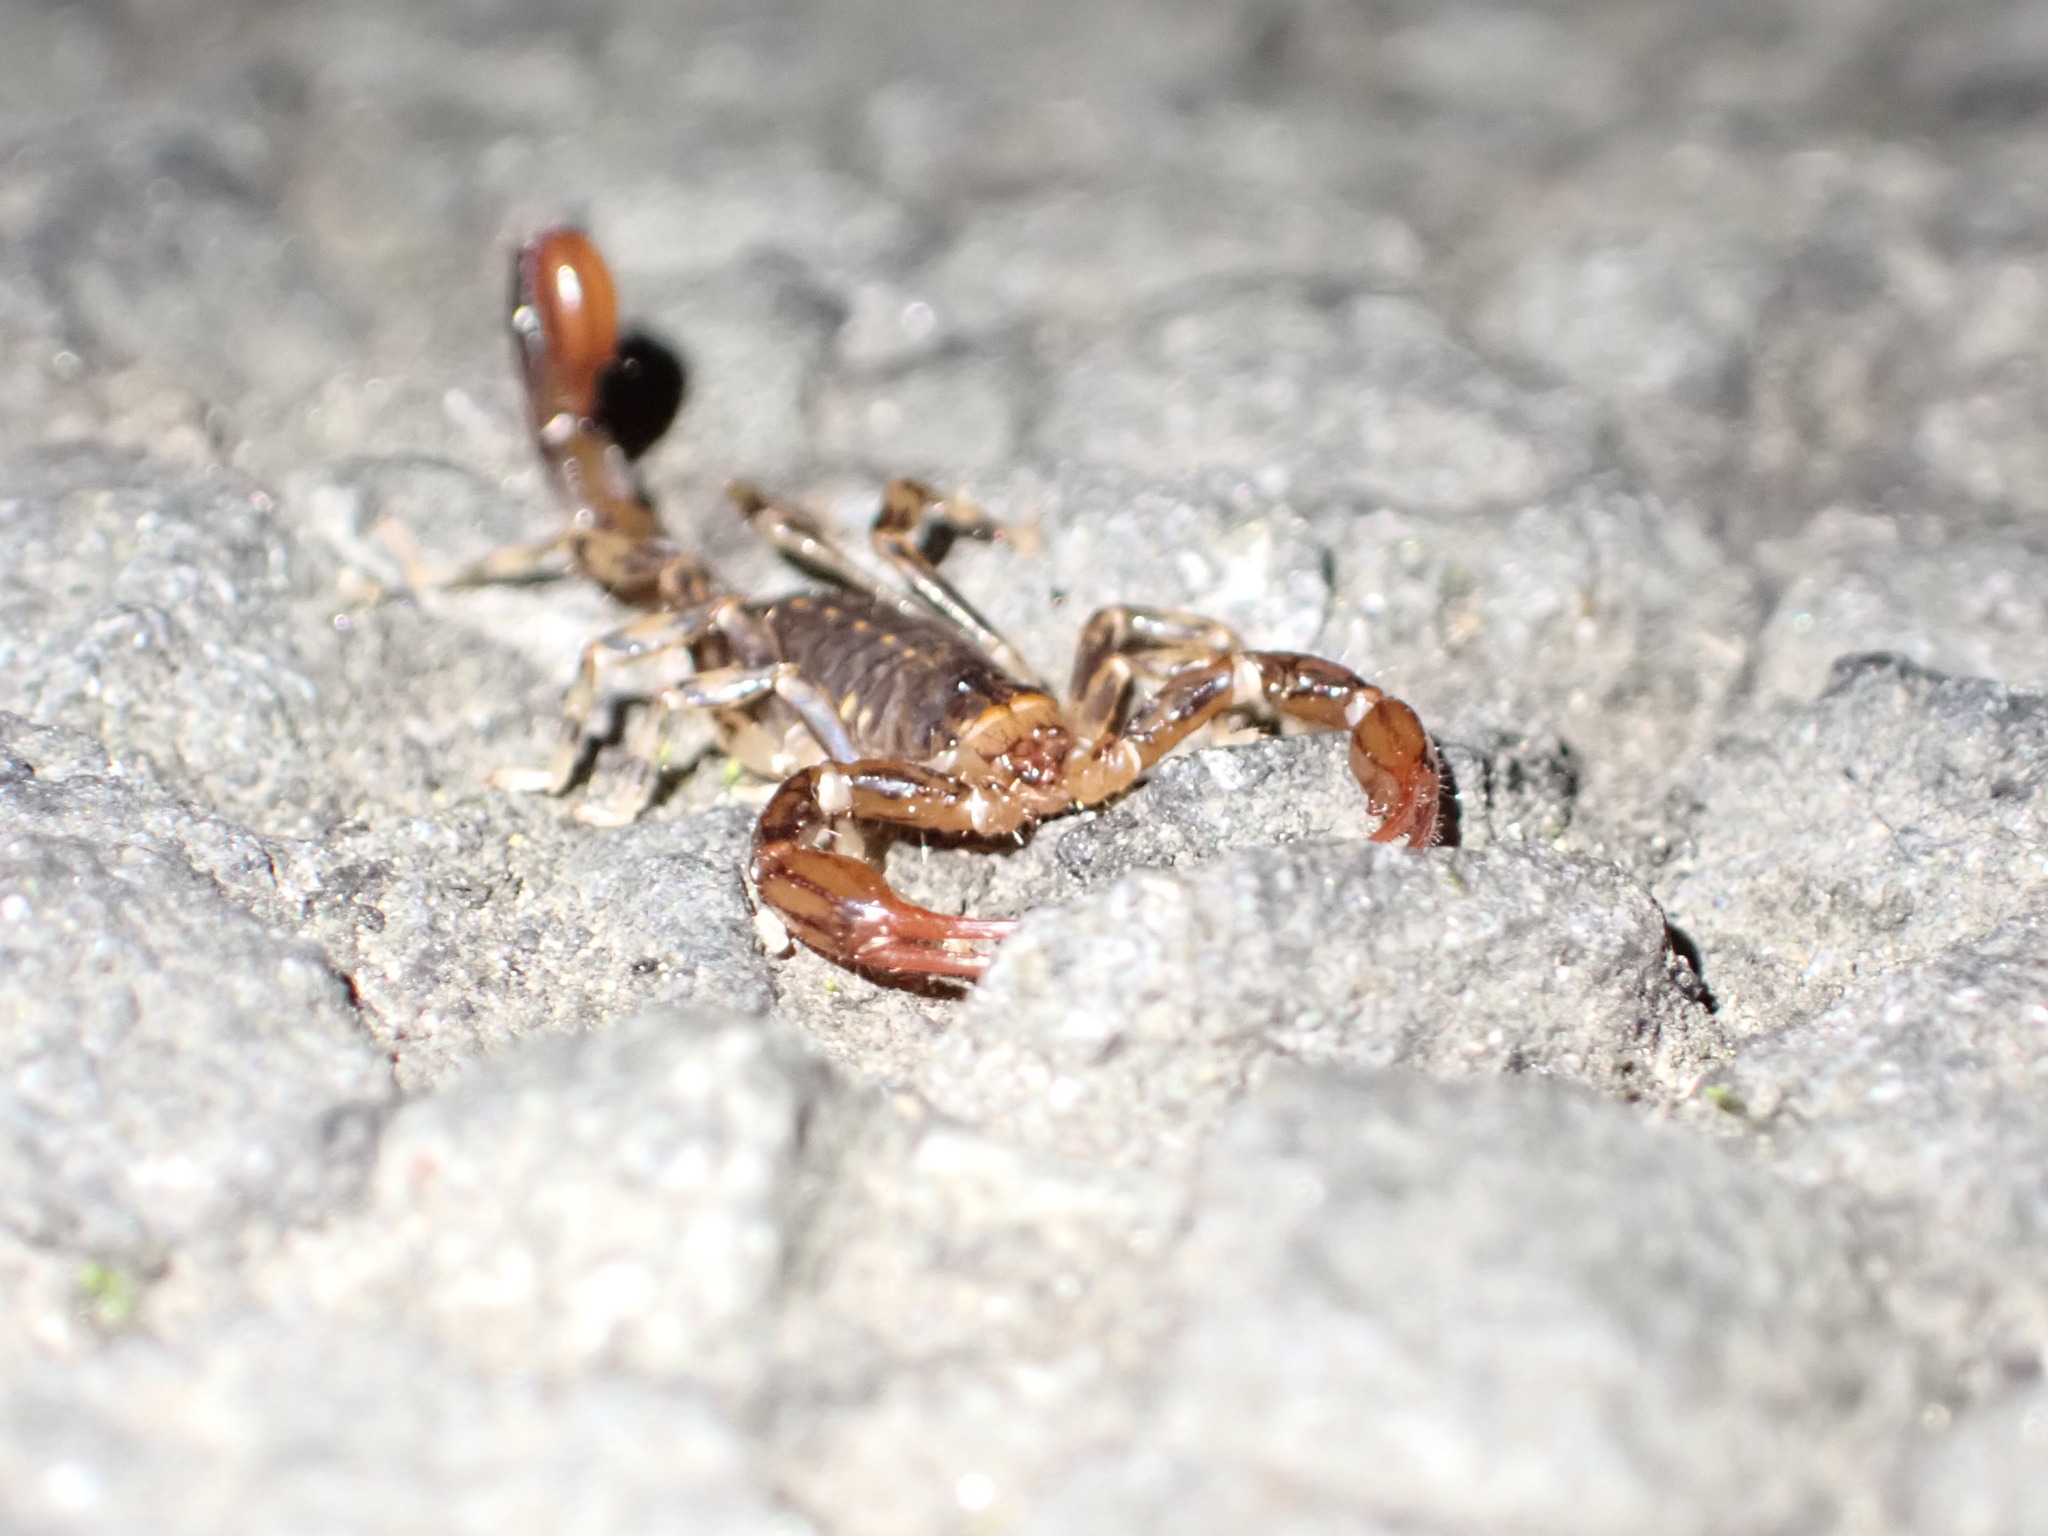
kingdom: Animalia
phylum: Arthropoda
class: Arachnida
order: Scorpiones
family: Bothriuridae
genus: Cercophonius
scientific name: Cercophonius squama
